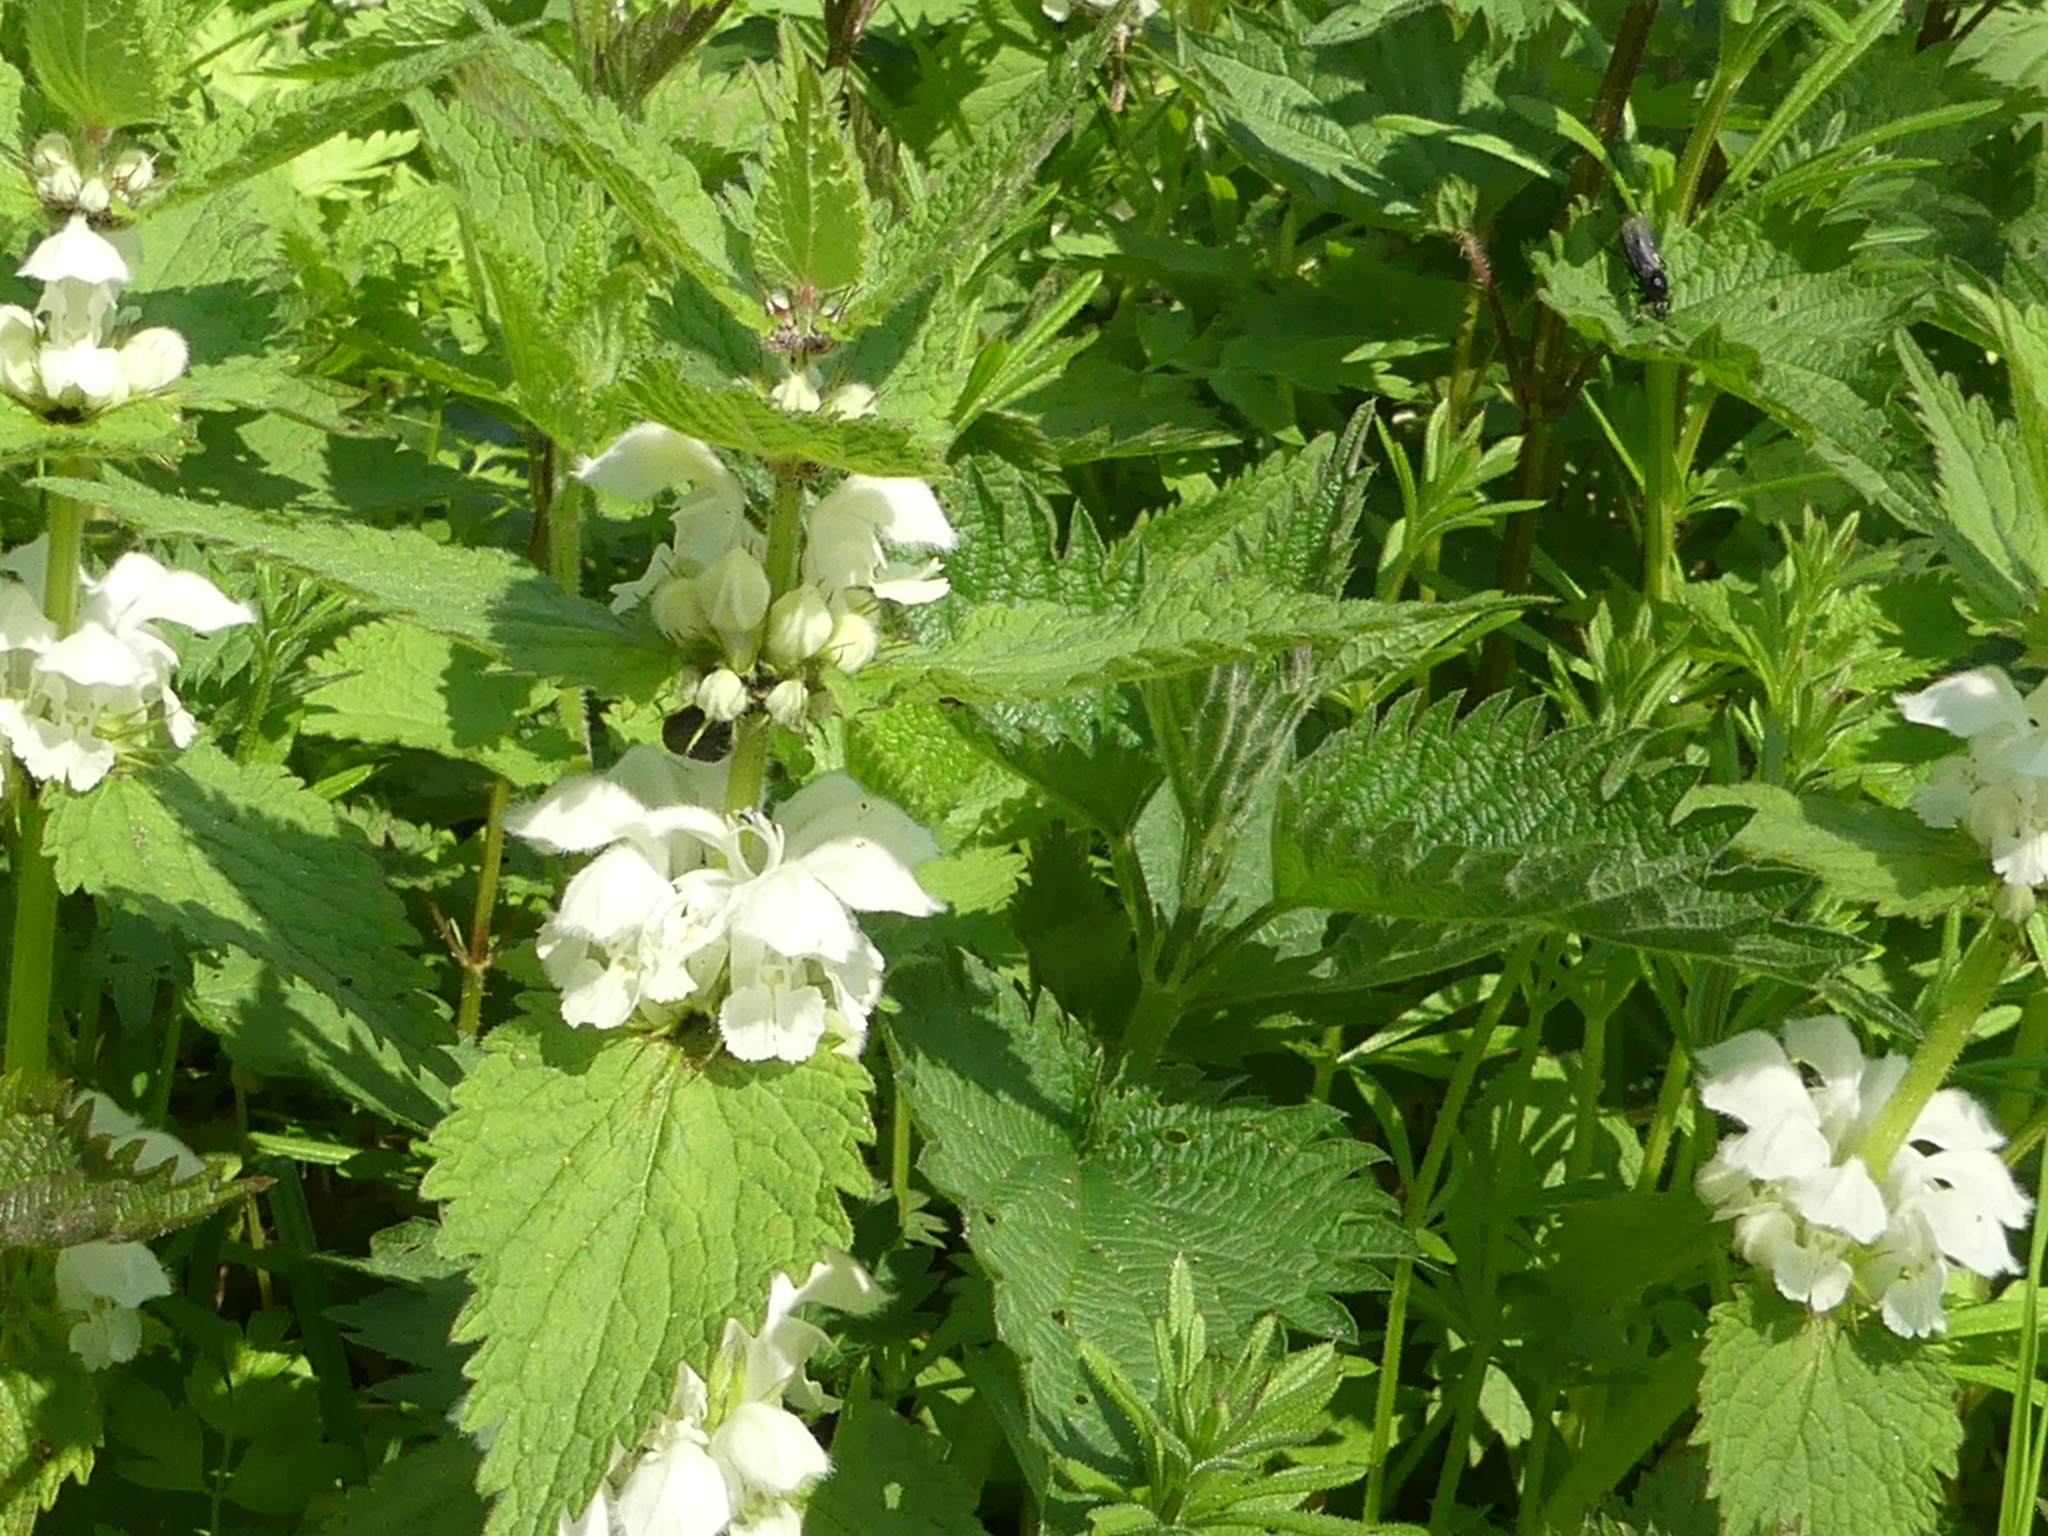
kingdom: Plantae
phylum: Tracheophyta
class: Magnoliopsida
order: Lamiales
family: Lamiaceae
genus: Lamium
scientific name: Lamium album
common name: White dead-nettle
